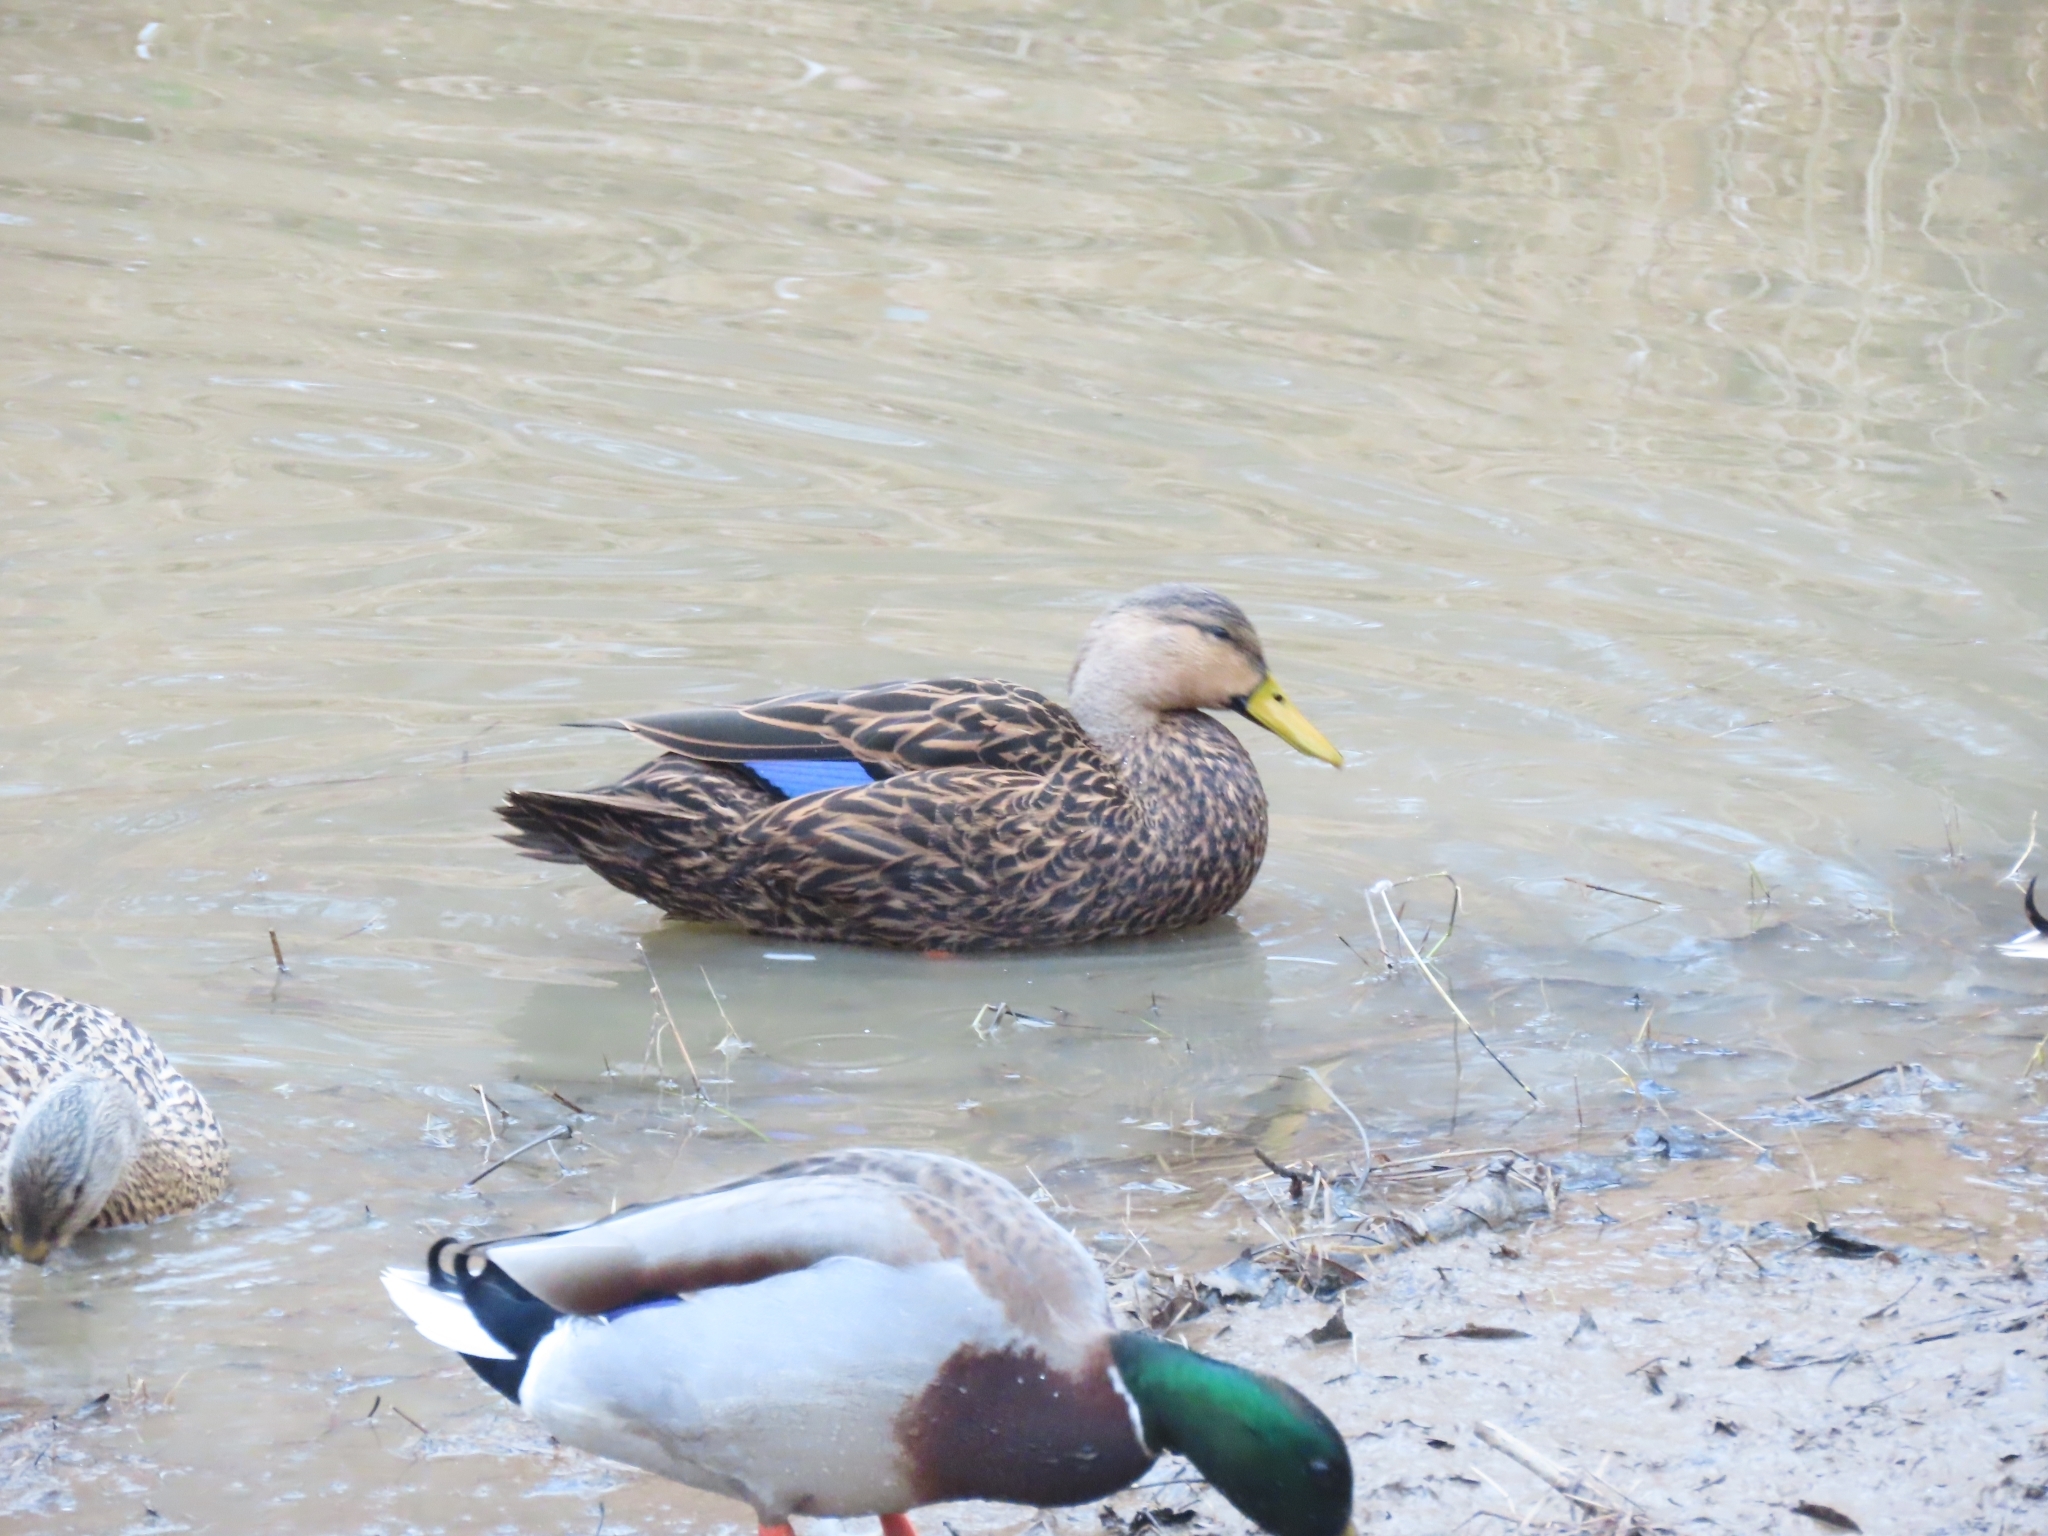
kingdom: Animalia
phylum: Chordata
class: Aves
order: Anseriformes
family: Anatidae
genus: Anas
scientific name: Anas fulvigula
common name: Mottled duck
